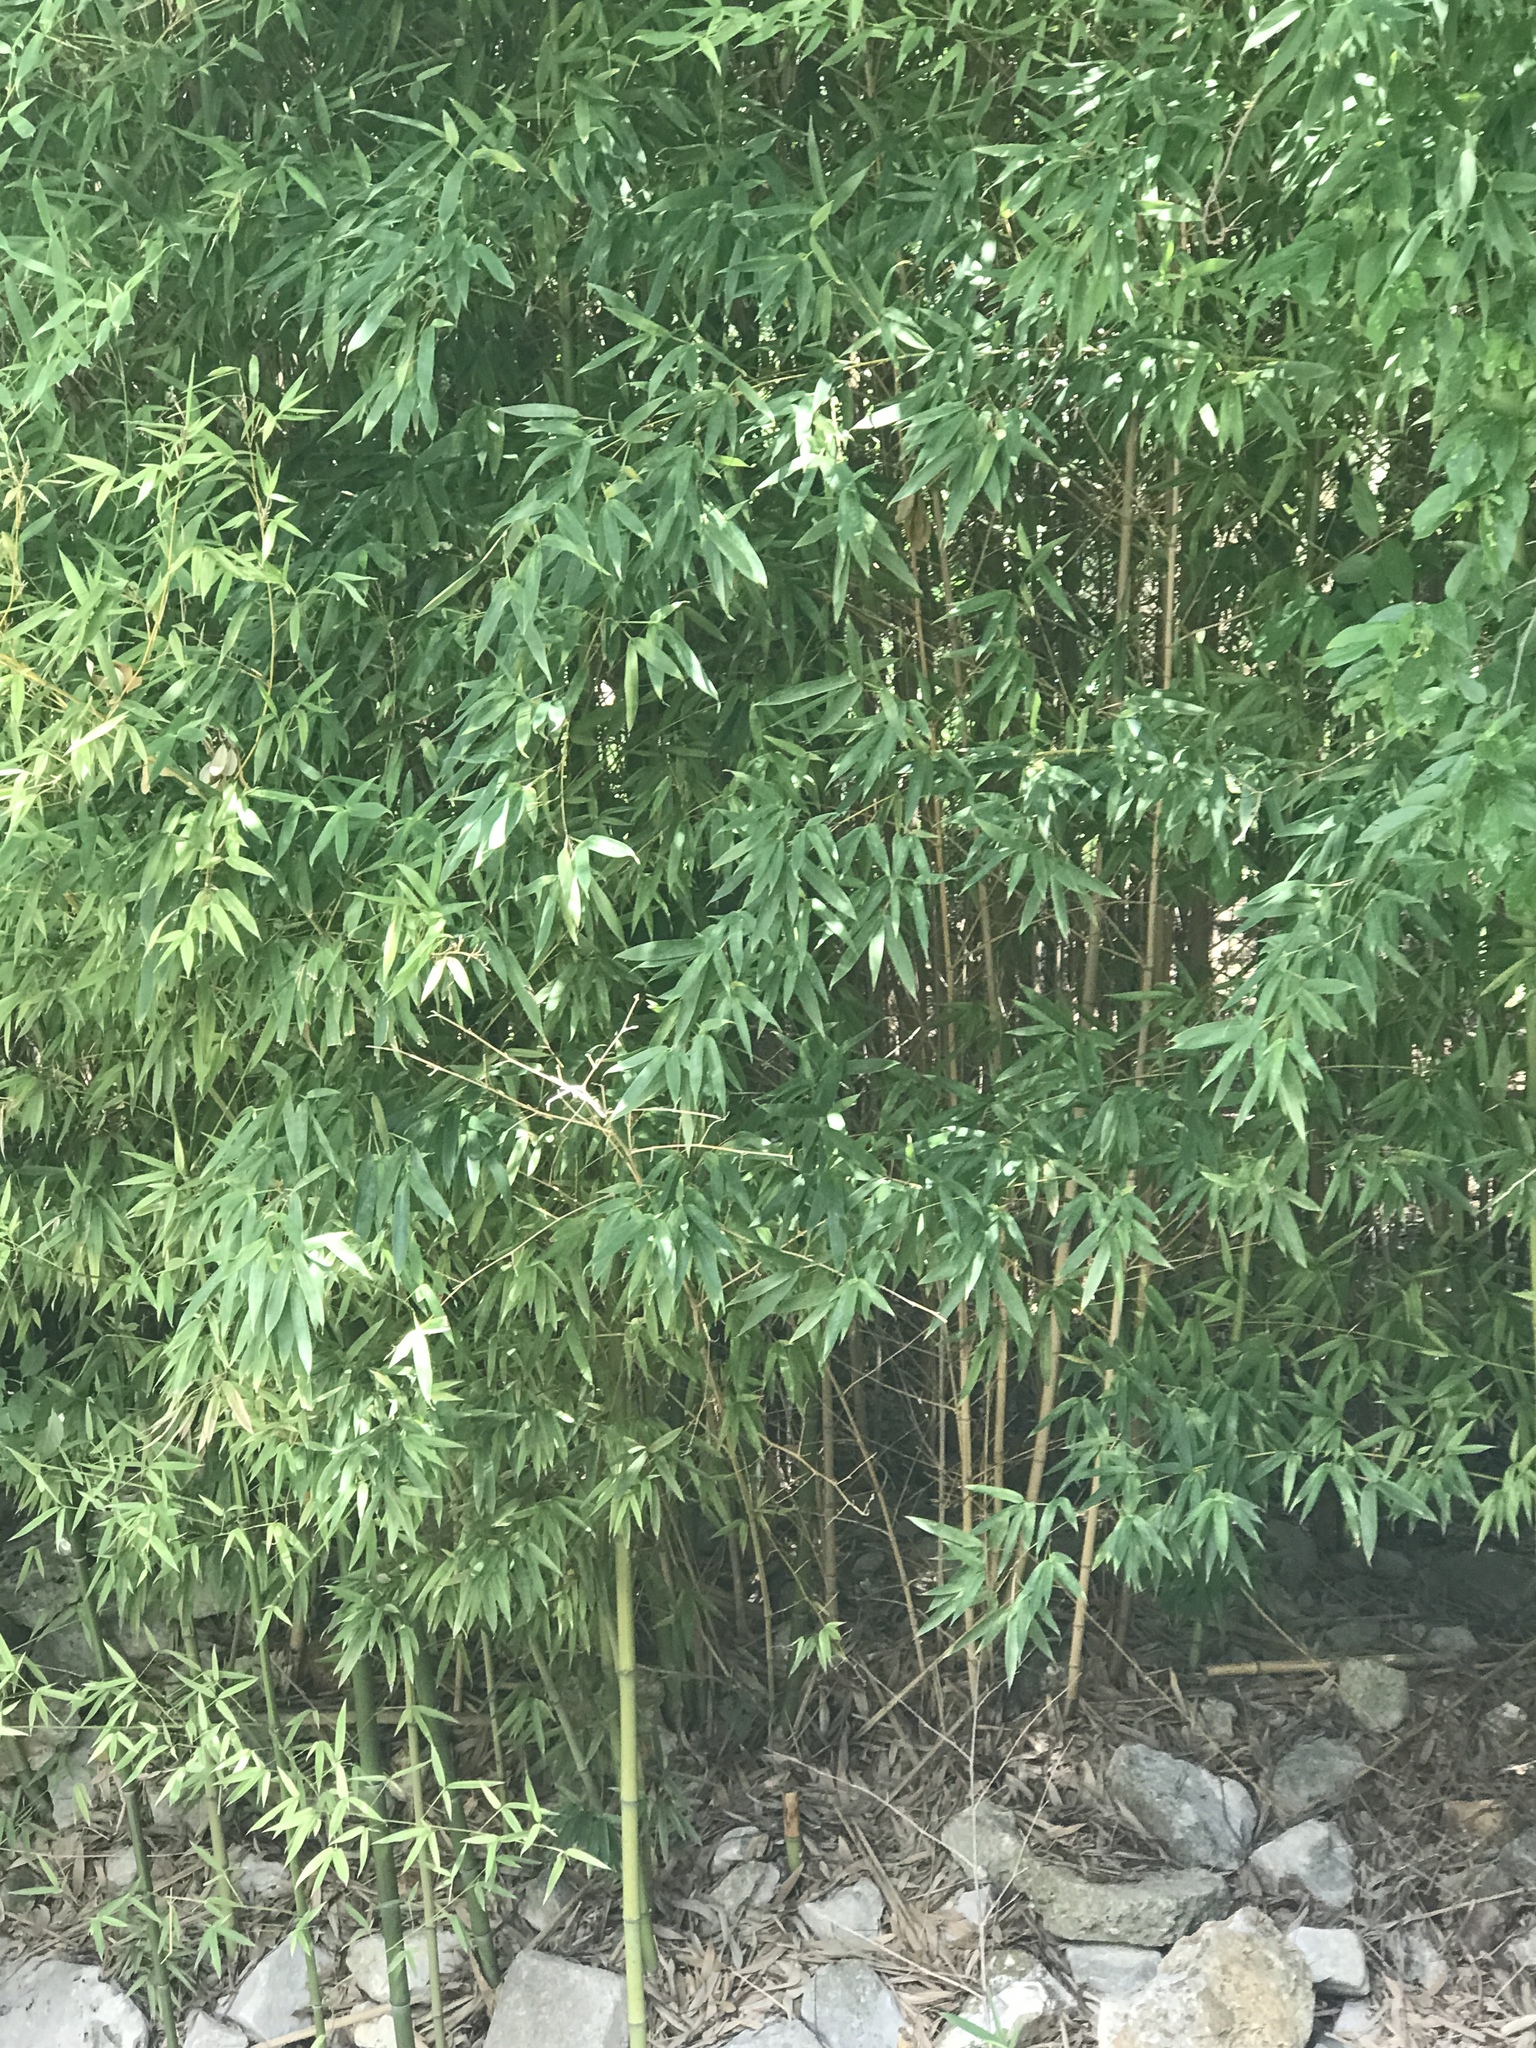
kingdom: Plantae
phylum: Tracheophyta
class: Liliopsida
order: Poales
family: Poaceae
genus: Phyllostachys
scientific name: Phyllostachys aurea
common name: Golden bamboo
